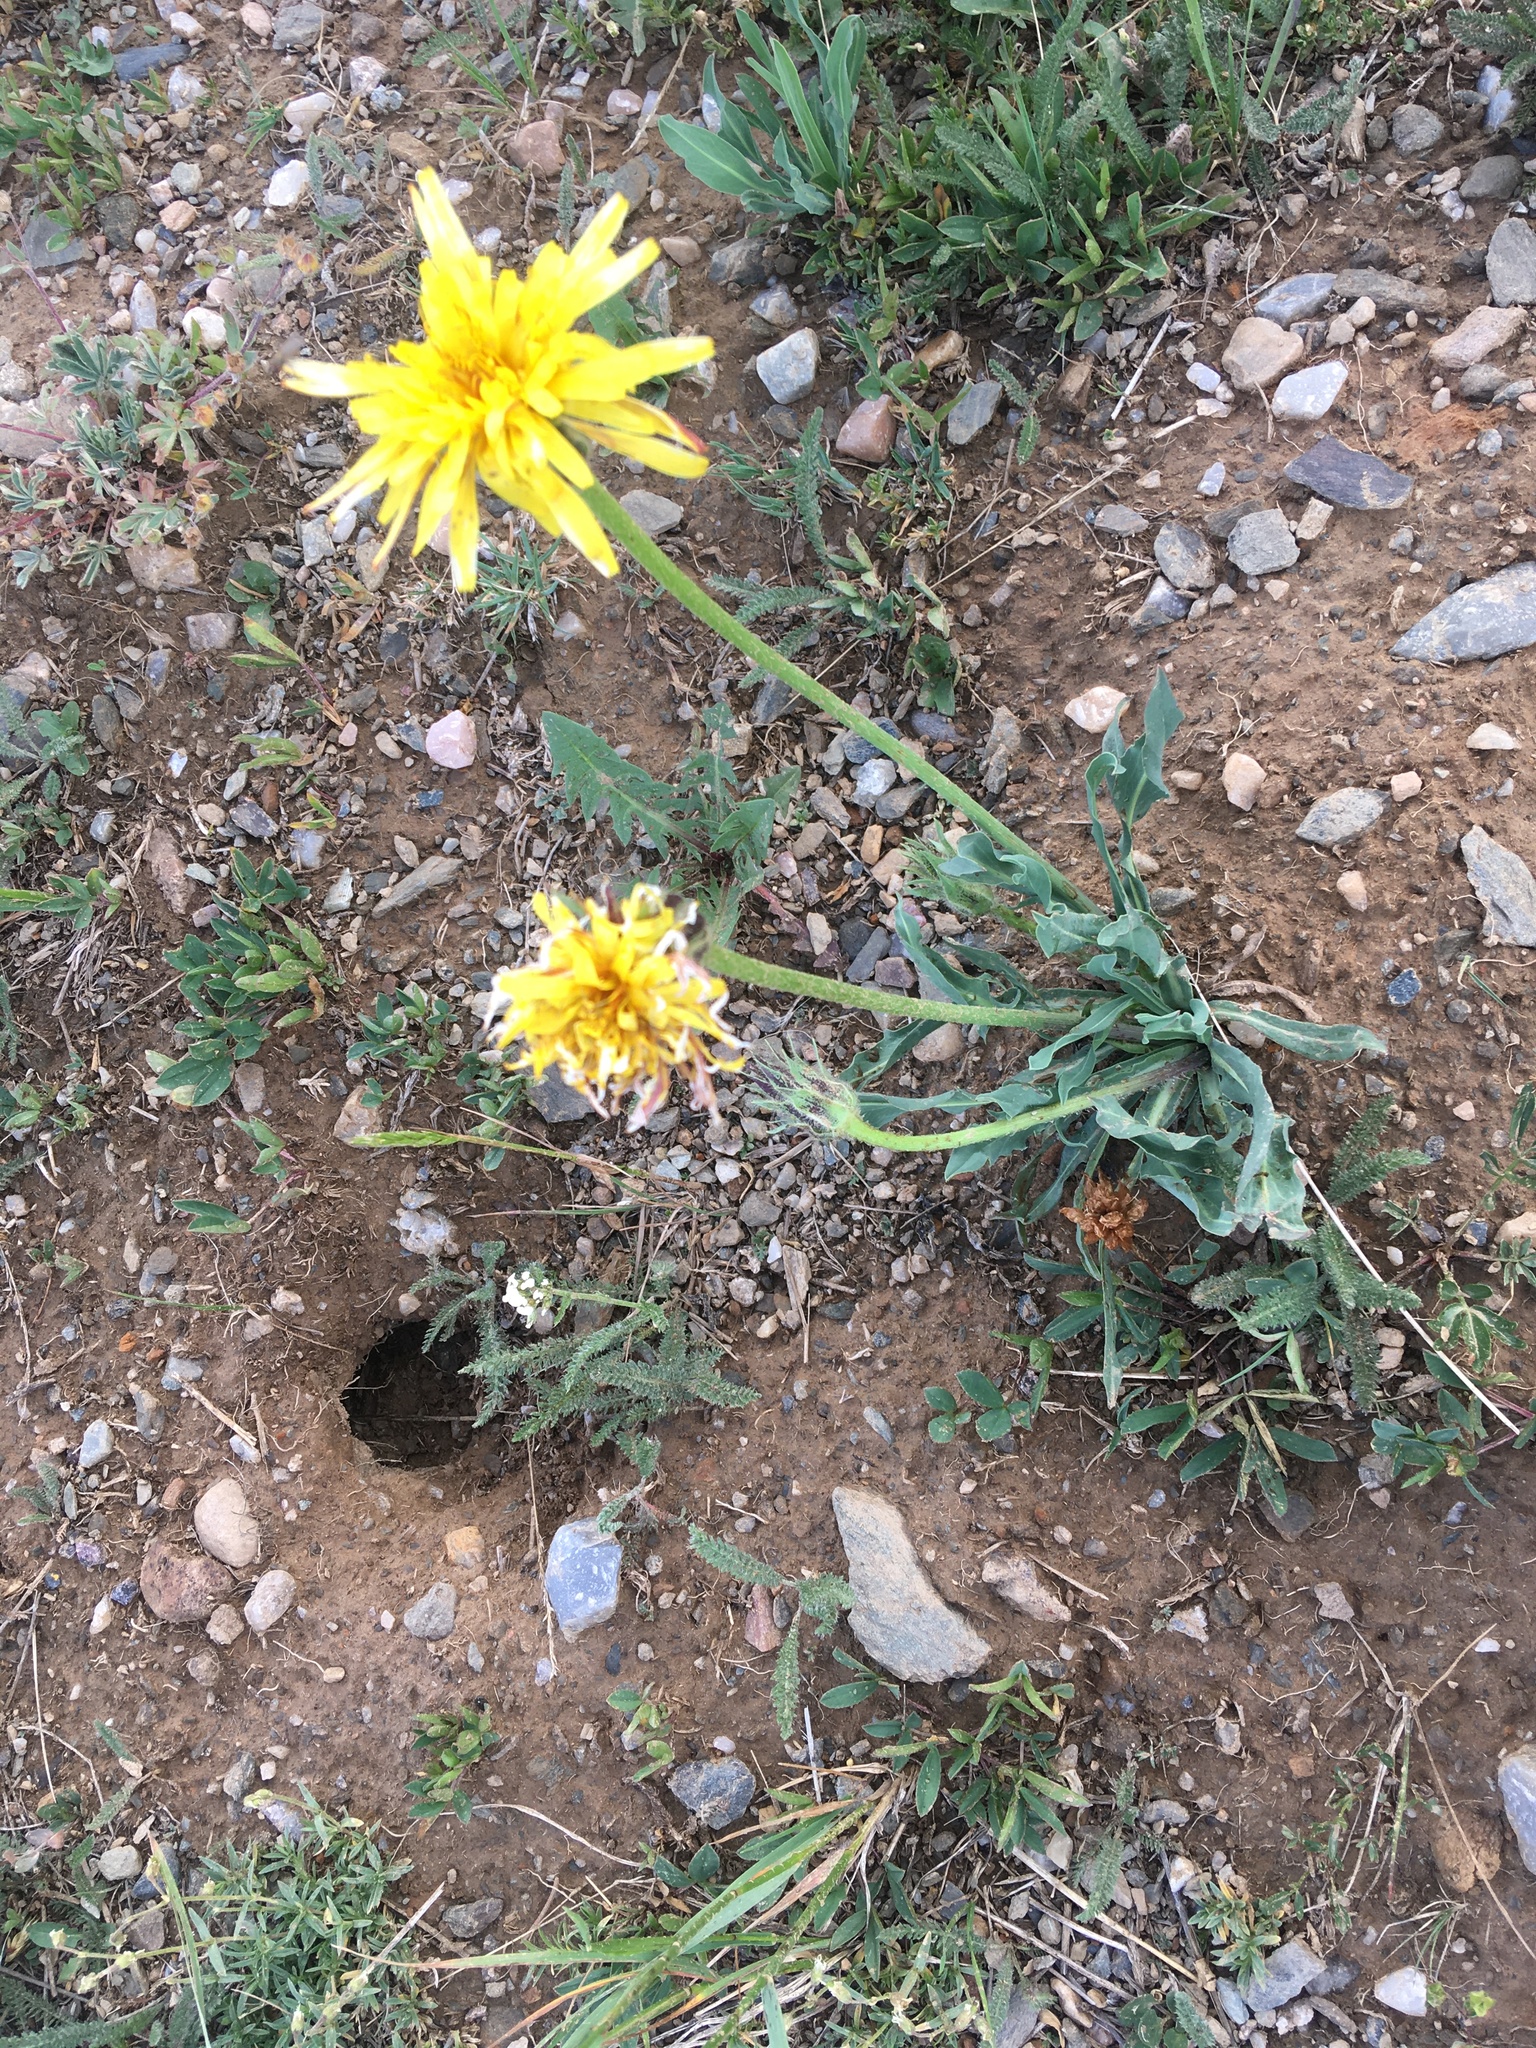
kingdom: Plantae
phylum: Tracheophyta
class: Magnoliopsida
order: Asterales
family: Asteraceae
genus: Agoseris
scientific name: Agoseris glauca
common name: Prairie agoseris
